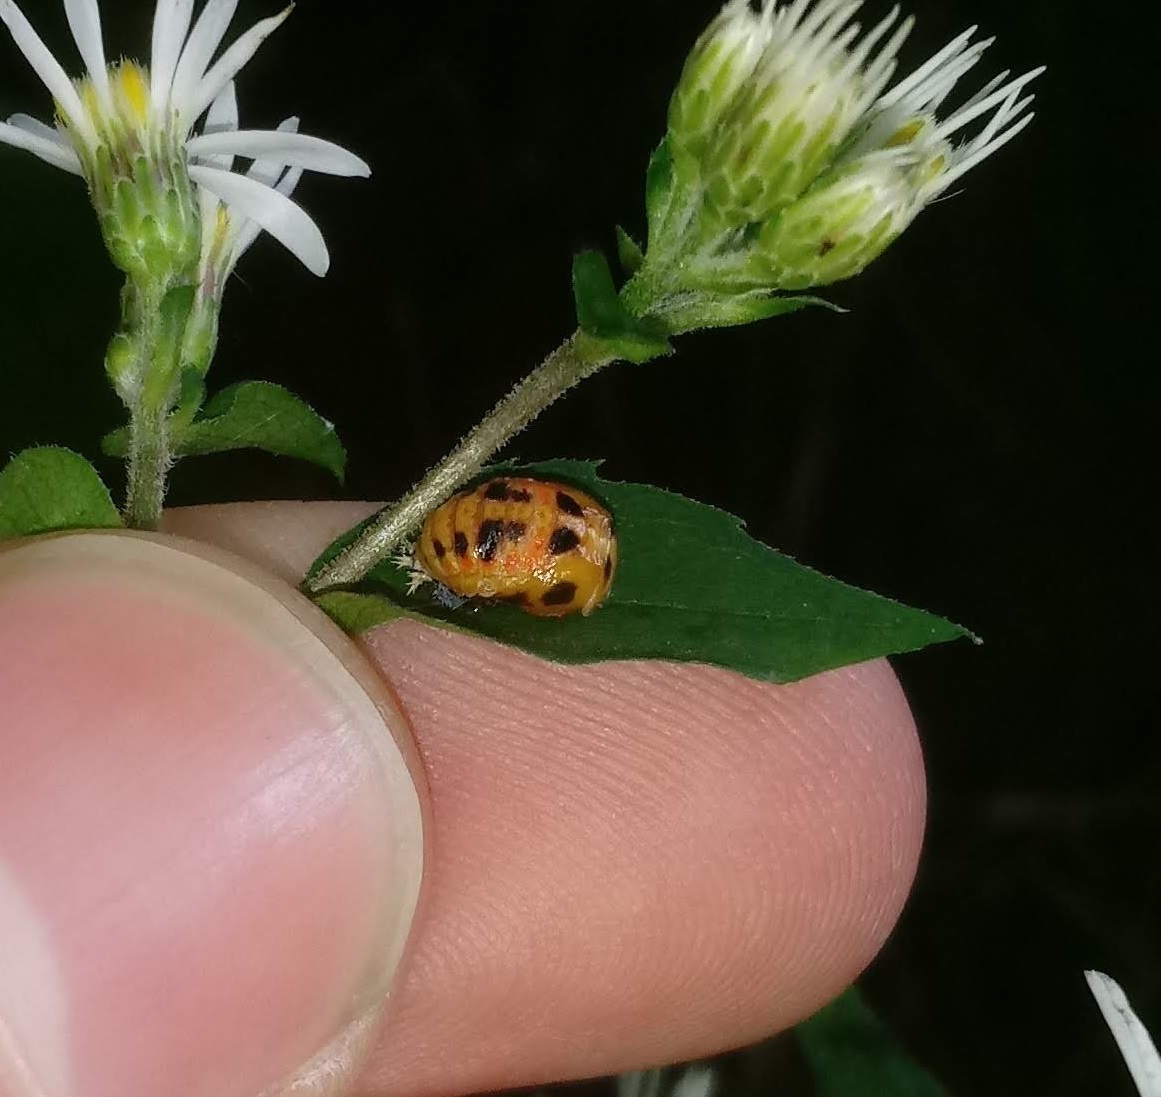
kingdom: Animalia
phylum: Arthropoda
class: Insecta
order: Coleoptera
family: Coccinellidae
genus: Harmonia
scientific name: Harmonia axyridis
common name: Harlequin ladybird
